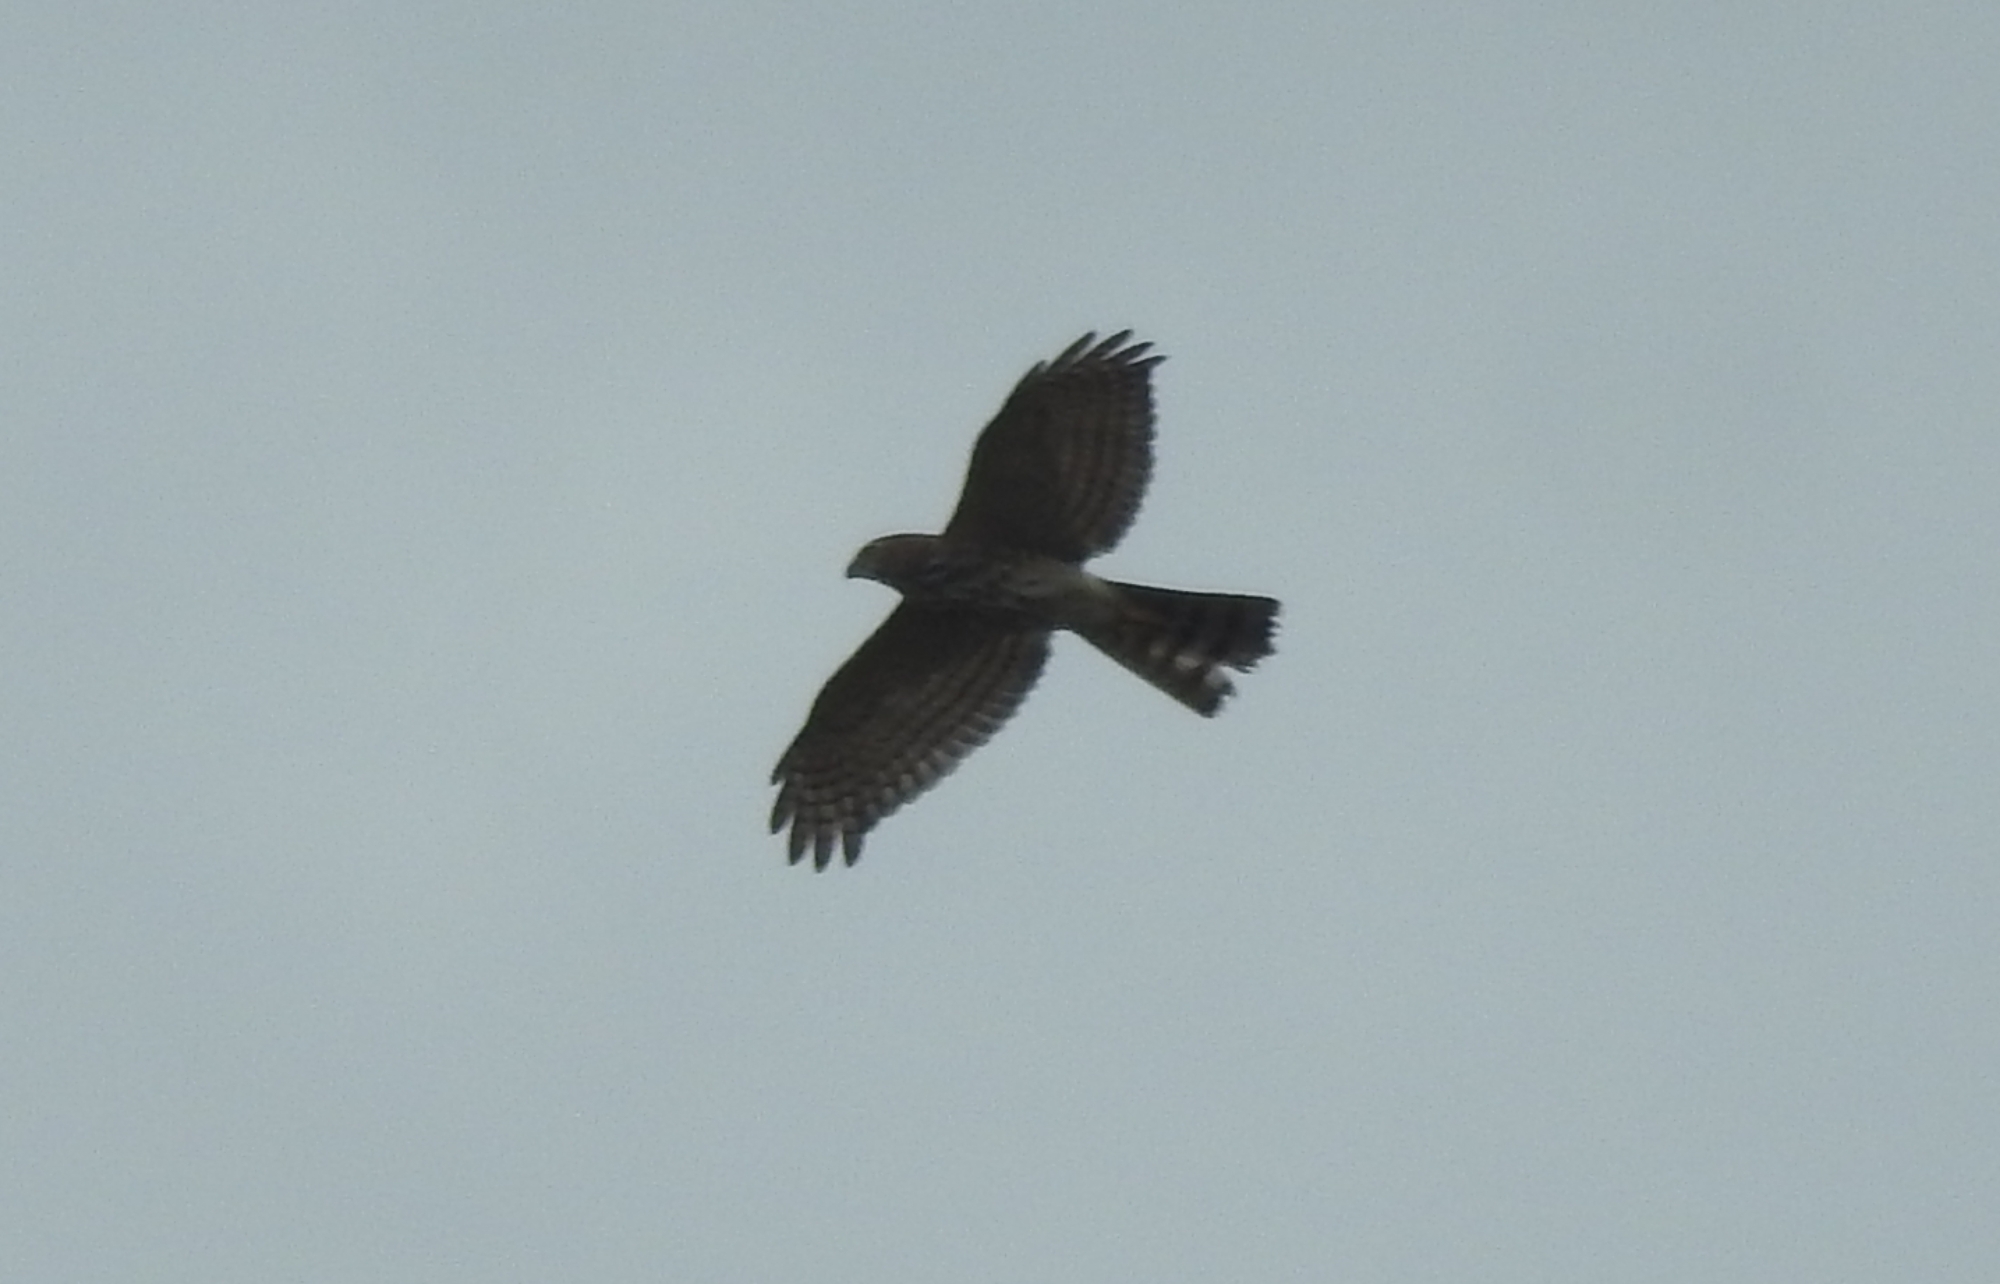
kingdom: Animalia
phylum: Chordata
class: Aves
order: Accipitriformes
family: Accipitridae
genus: Accipiter
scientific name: Accipiter badius
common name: Shikra
